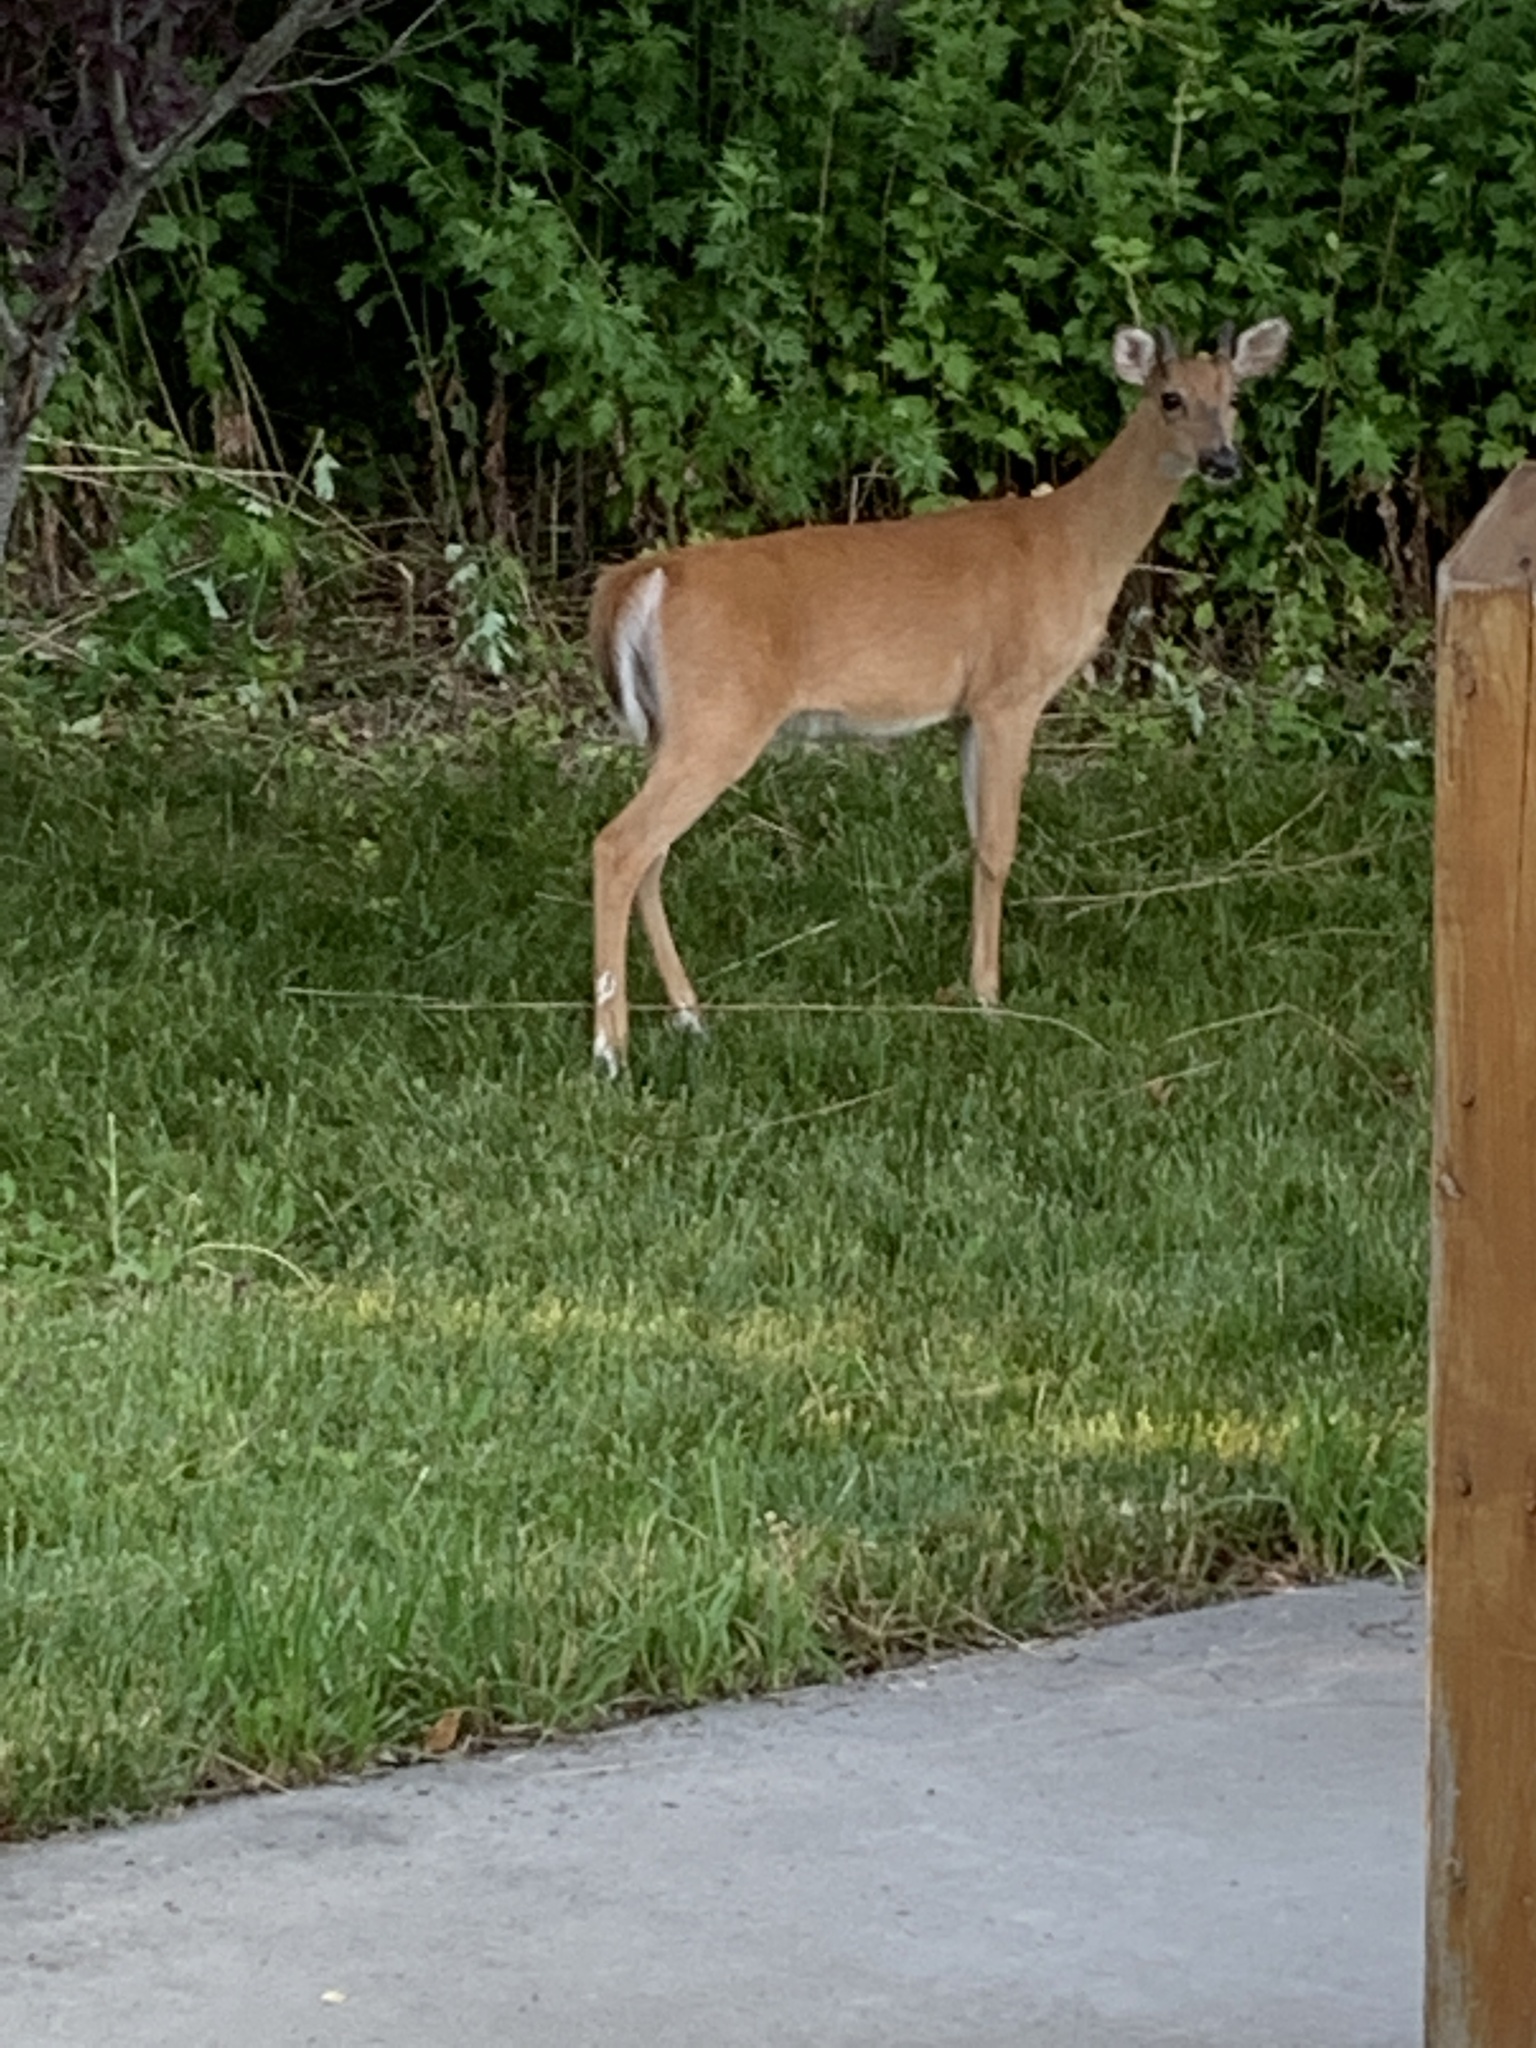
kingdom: Animalia
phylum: Chordata
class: Mammalia
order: Artiodactyla
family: Cervidae
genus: Odocoileus
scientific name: Odocoileus virginianus
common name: White-tailed deer
